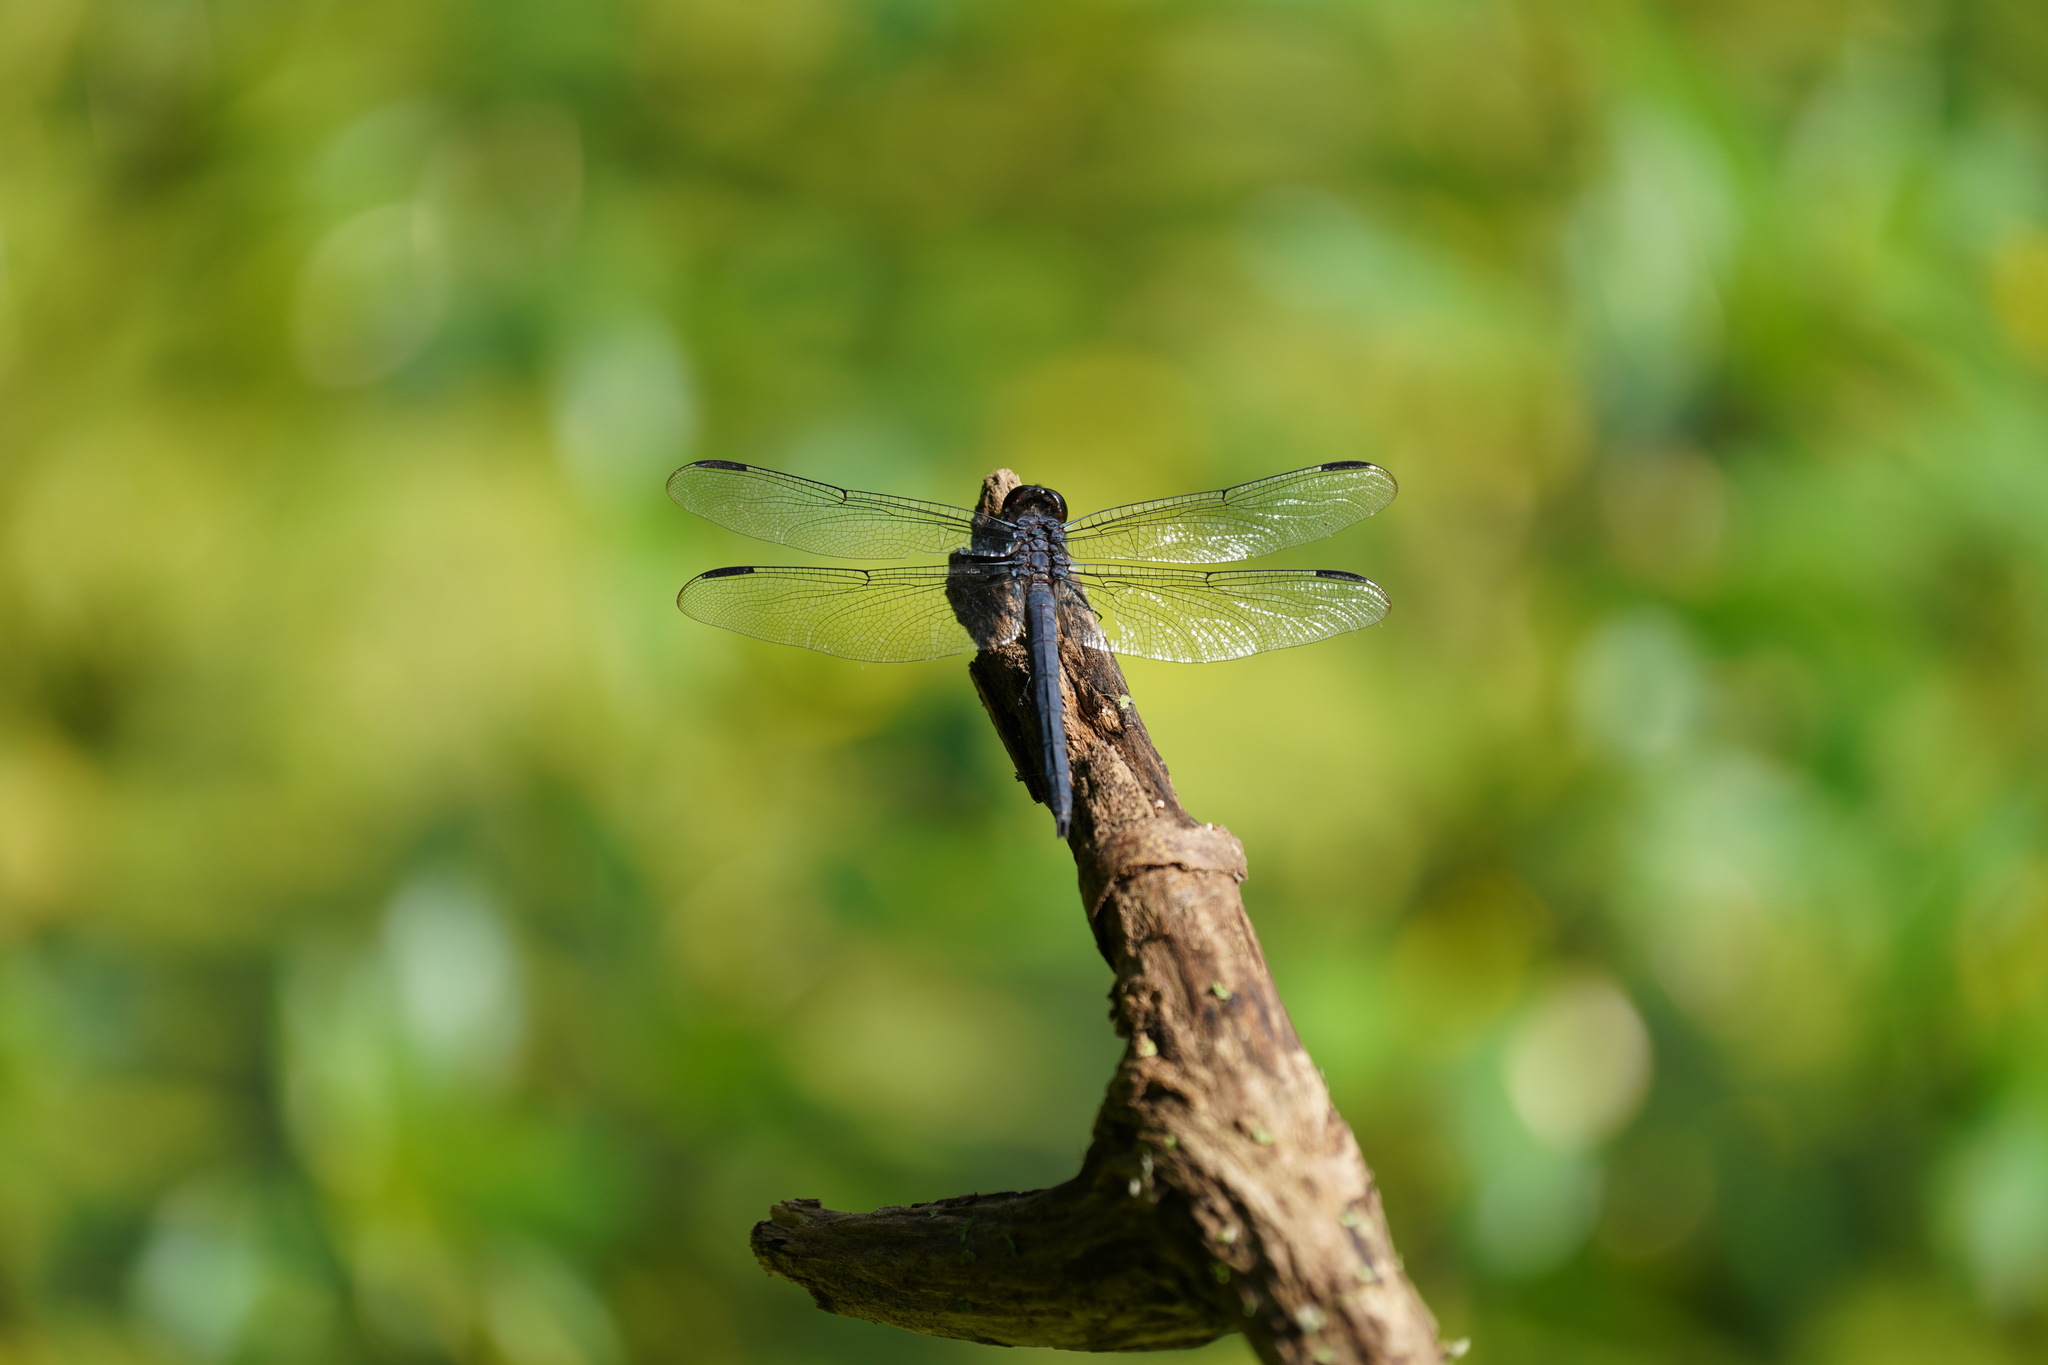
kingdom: Animalia
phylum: Arthropoda
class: Insecta
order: Odonata
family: Libellulidae
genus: Libellula
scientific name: Libellula incesta
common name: Slaty skimmer
